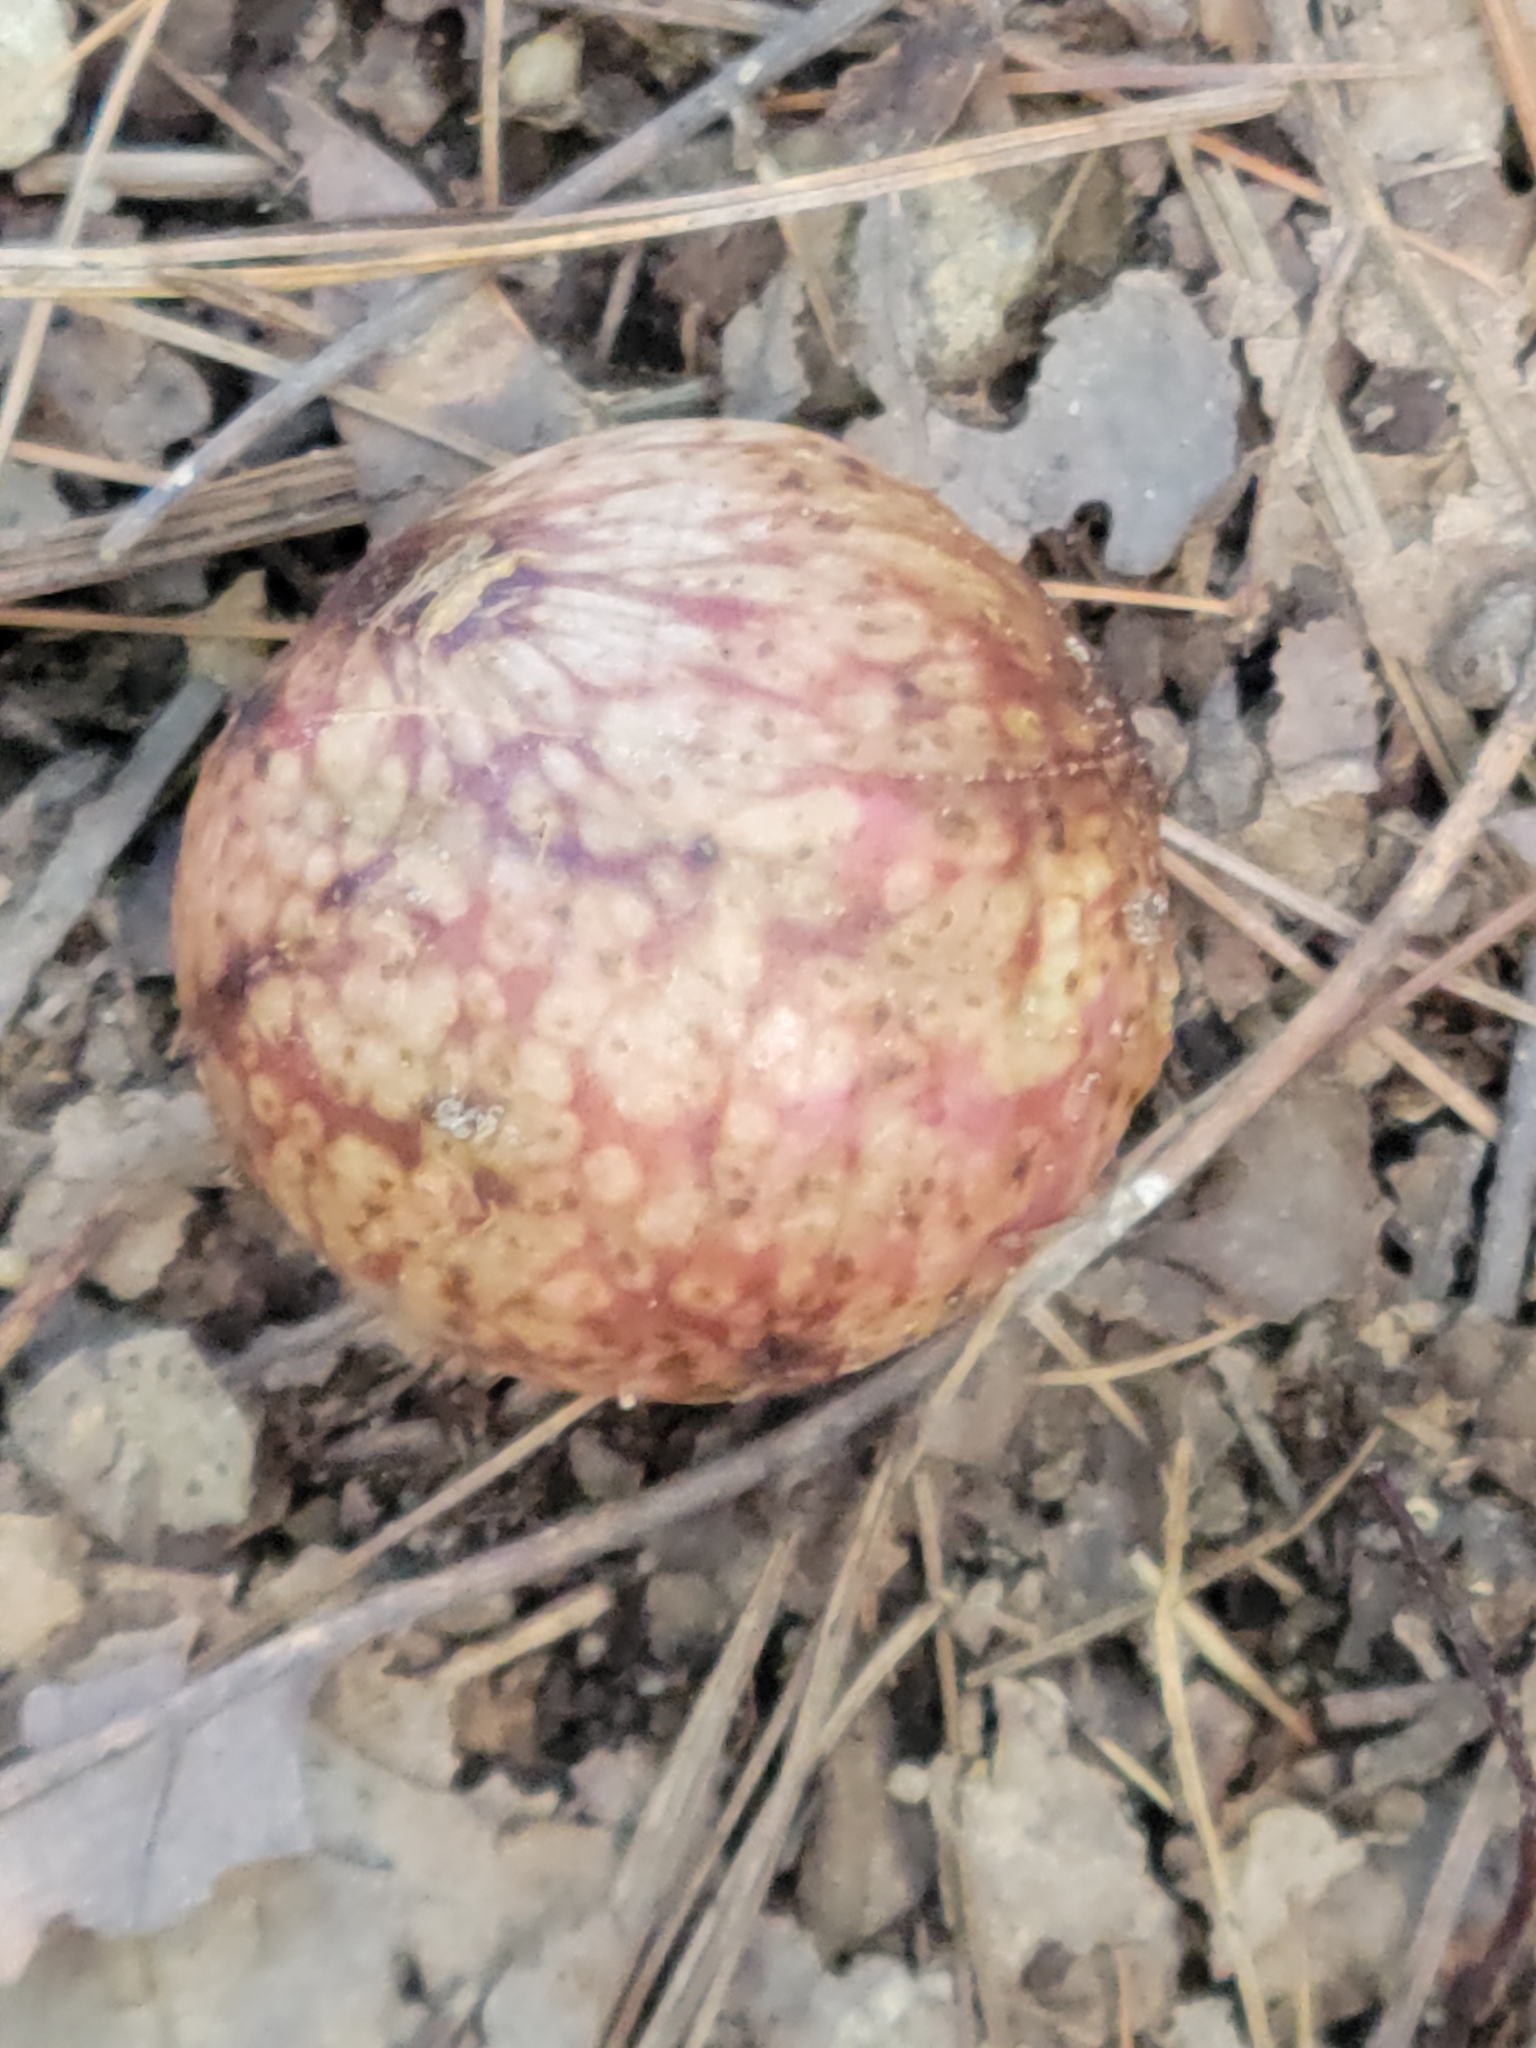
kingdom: Animalia
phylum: Arthropoda
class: Insecta
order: Hymenoptera
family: Cynipidae
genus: Amphibolips
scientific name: Amphibolips
